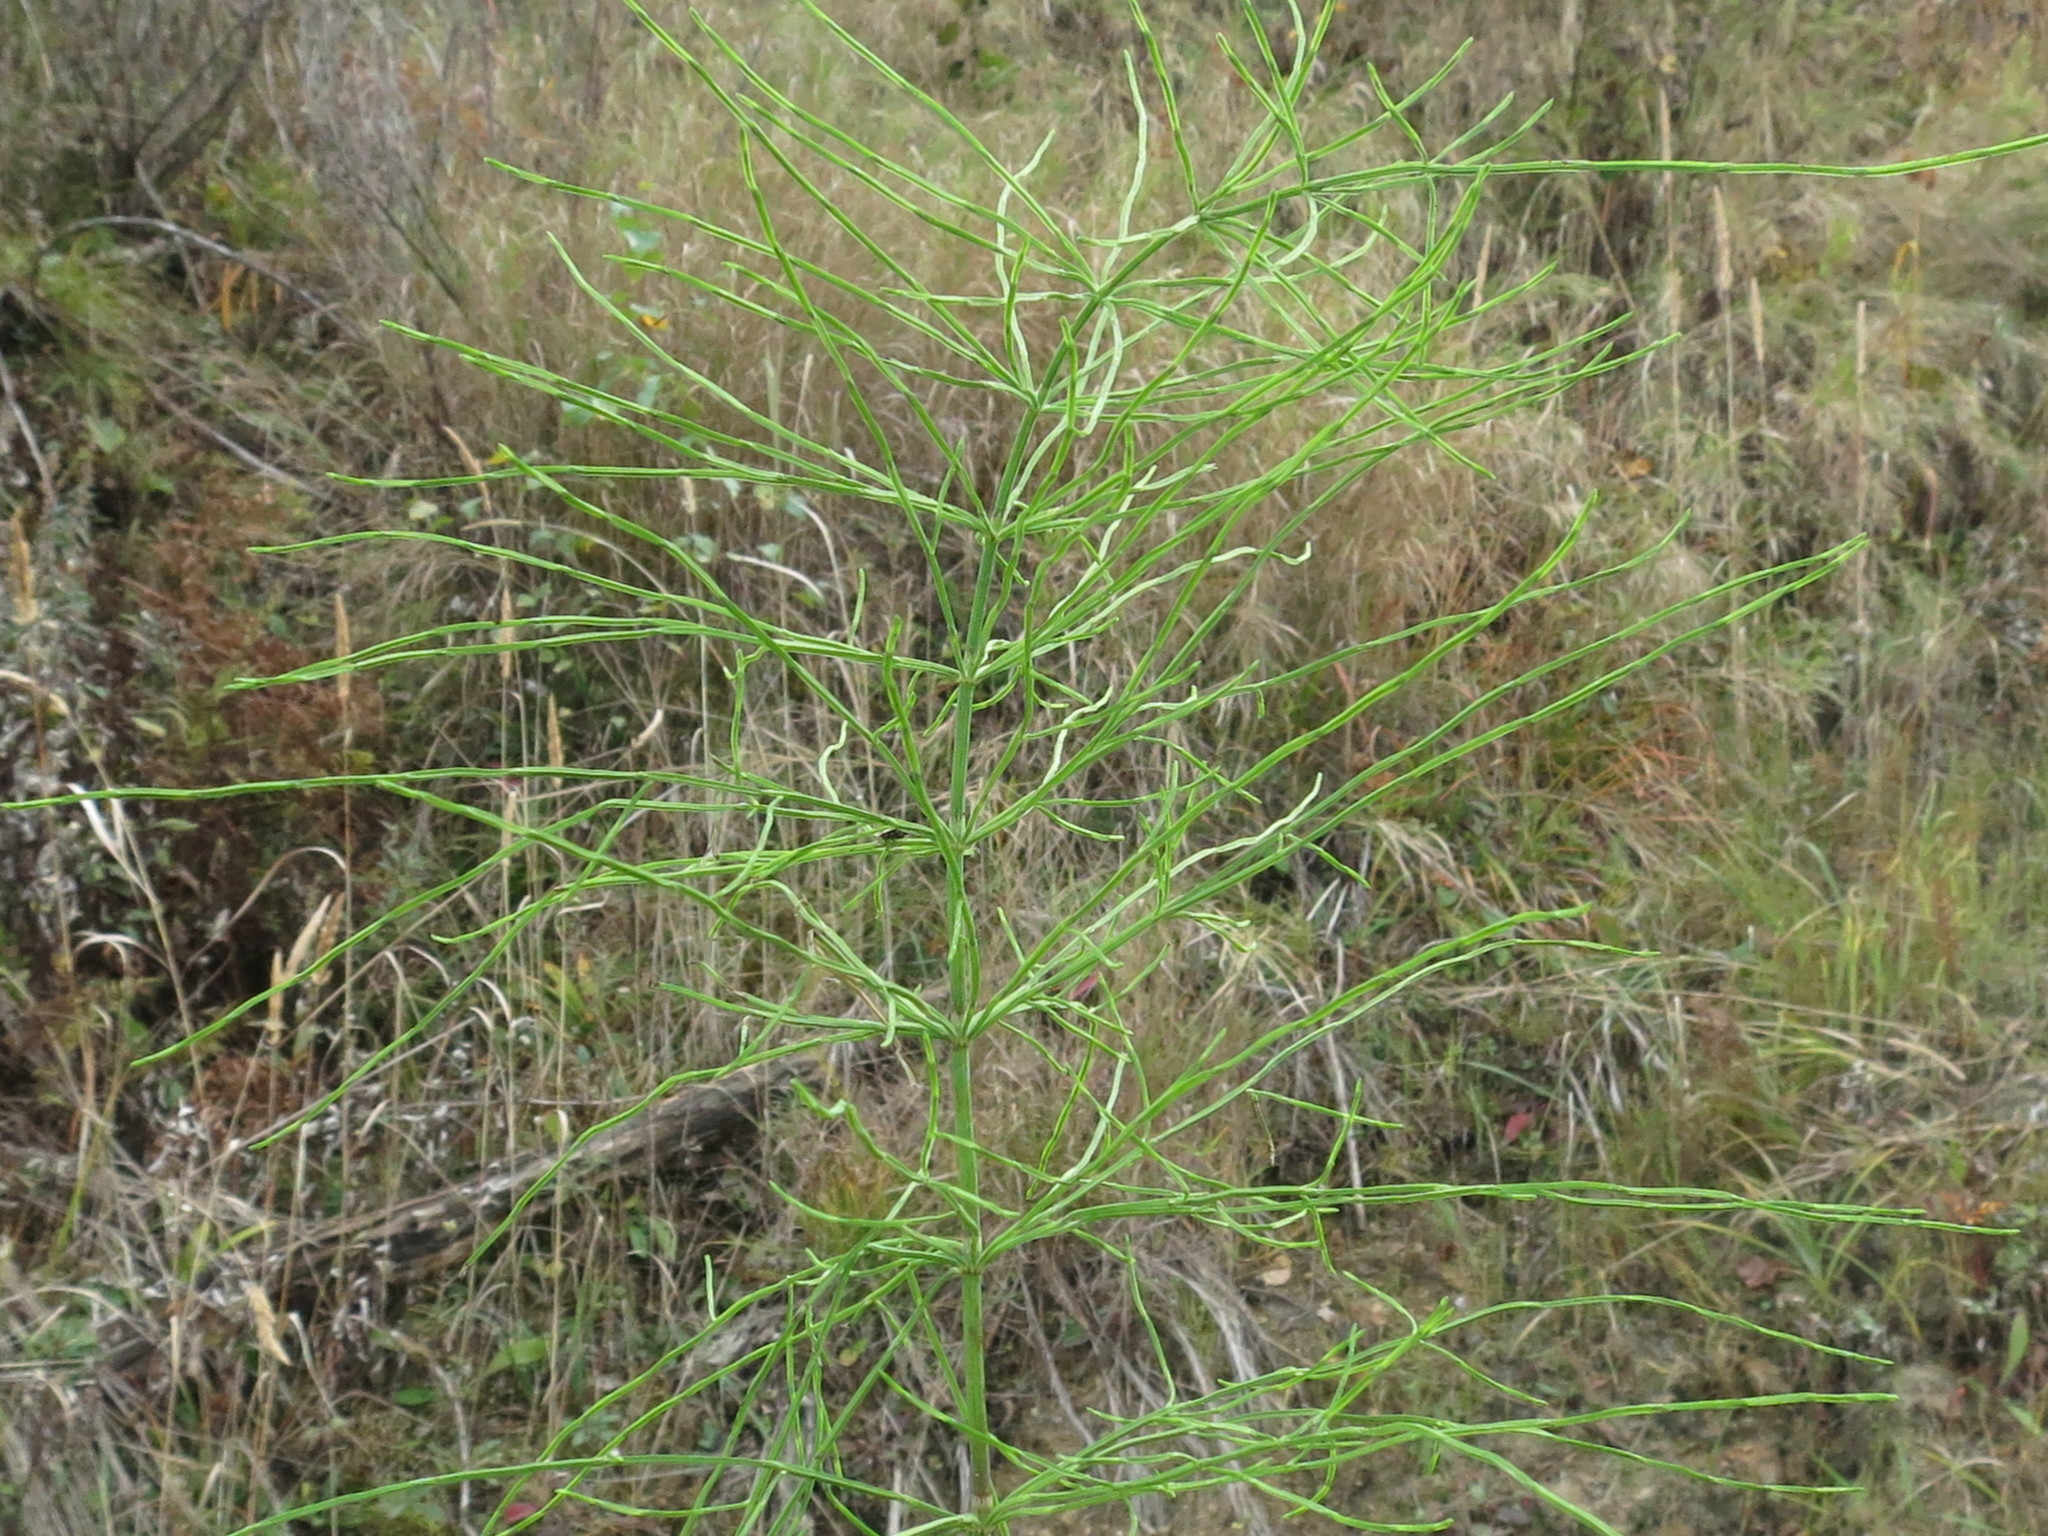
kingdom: Plantae
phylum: Tracheophyta
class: Polypodiopsida
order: Equisetales
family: Equisetaceae
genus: Equisetum
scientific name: Equisetum arvense
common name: Field horsetail
